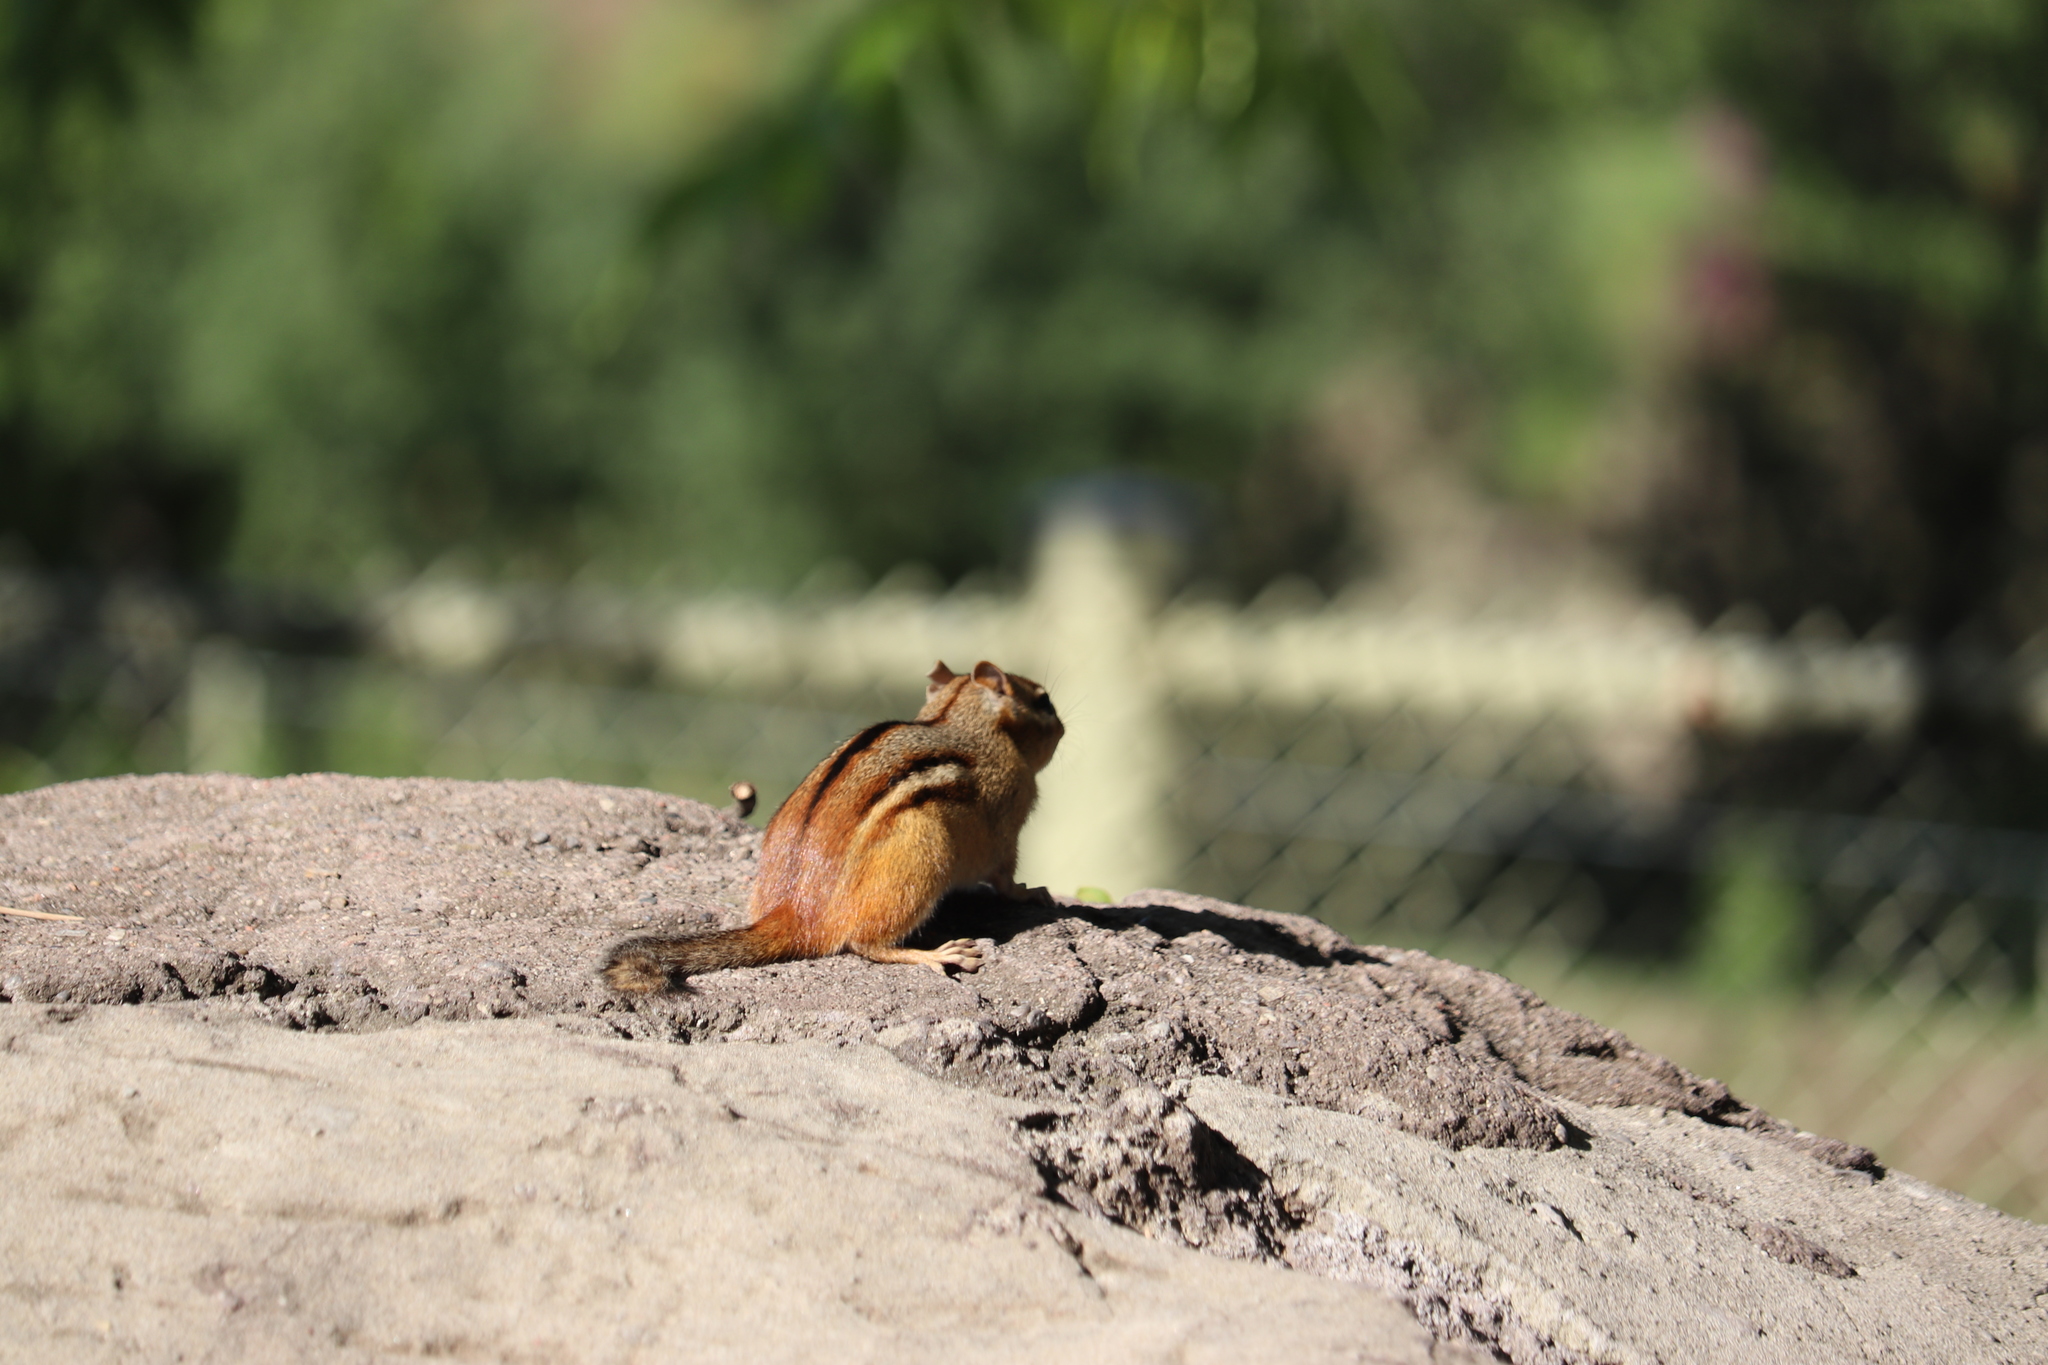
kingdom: Animalia
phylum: Chordata
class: Mammalia
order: Rodentia
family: Sciuridae
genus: Tamias
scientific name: Tamias striatus
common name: Eastern chipmunk
